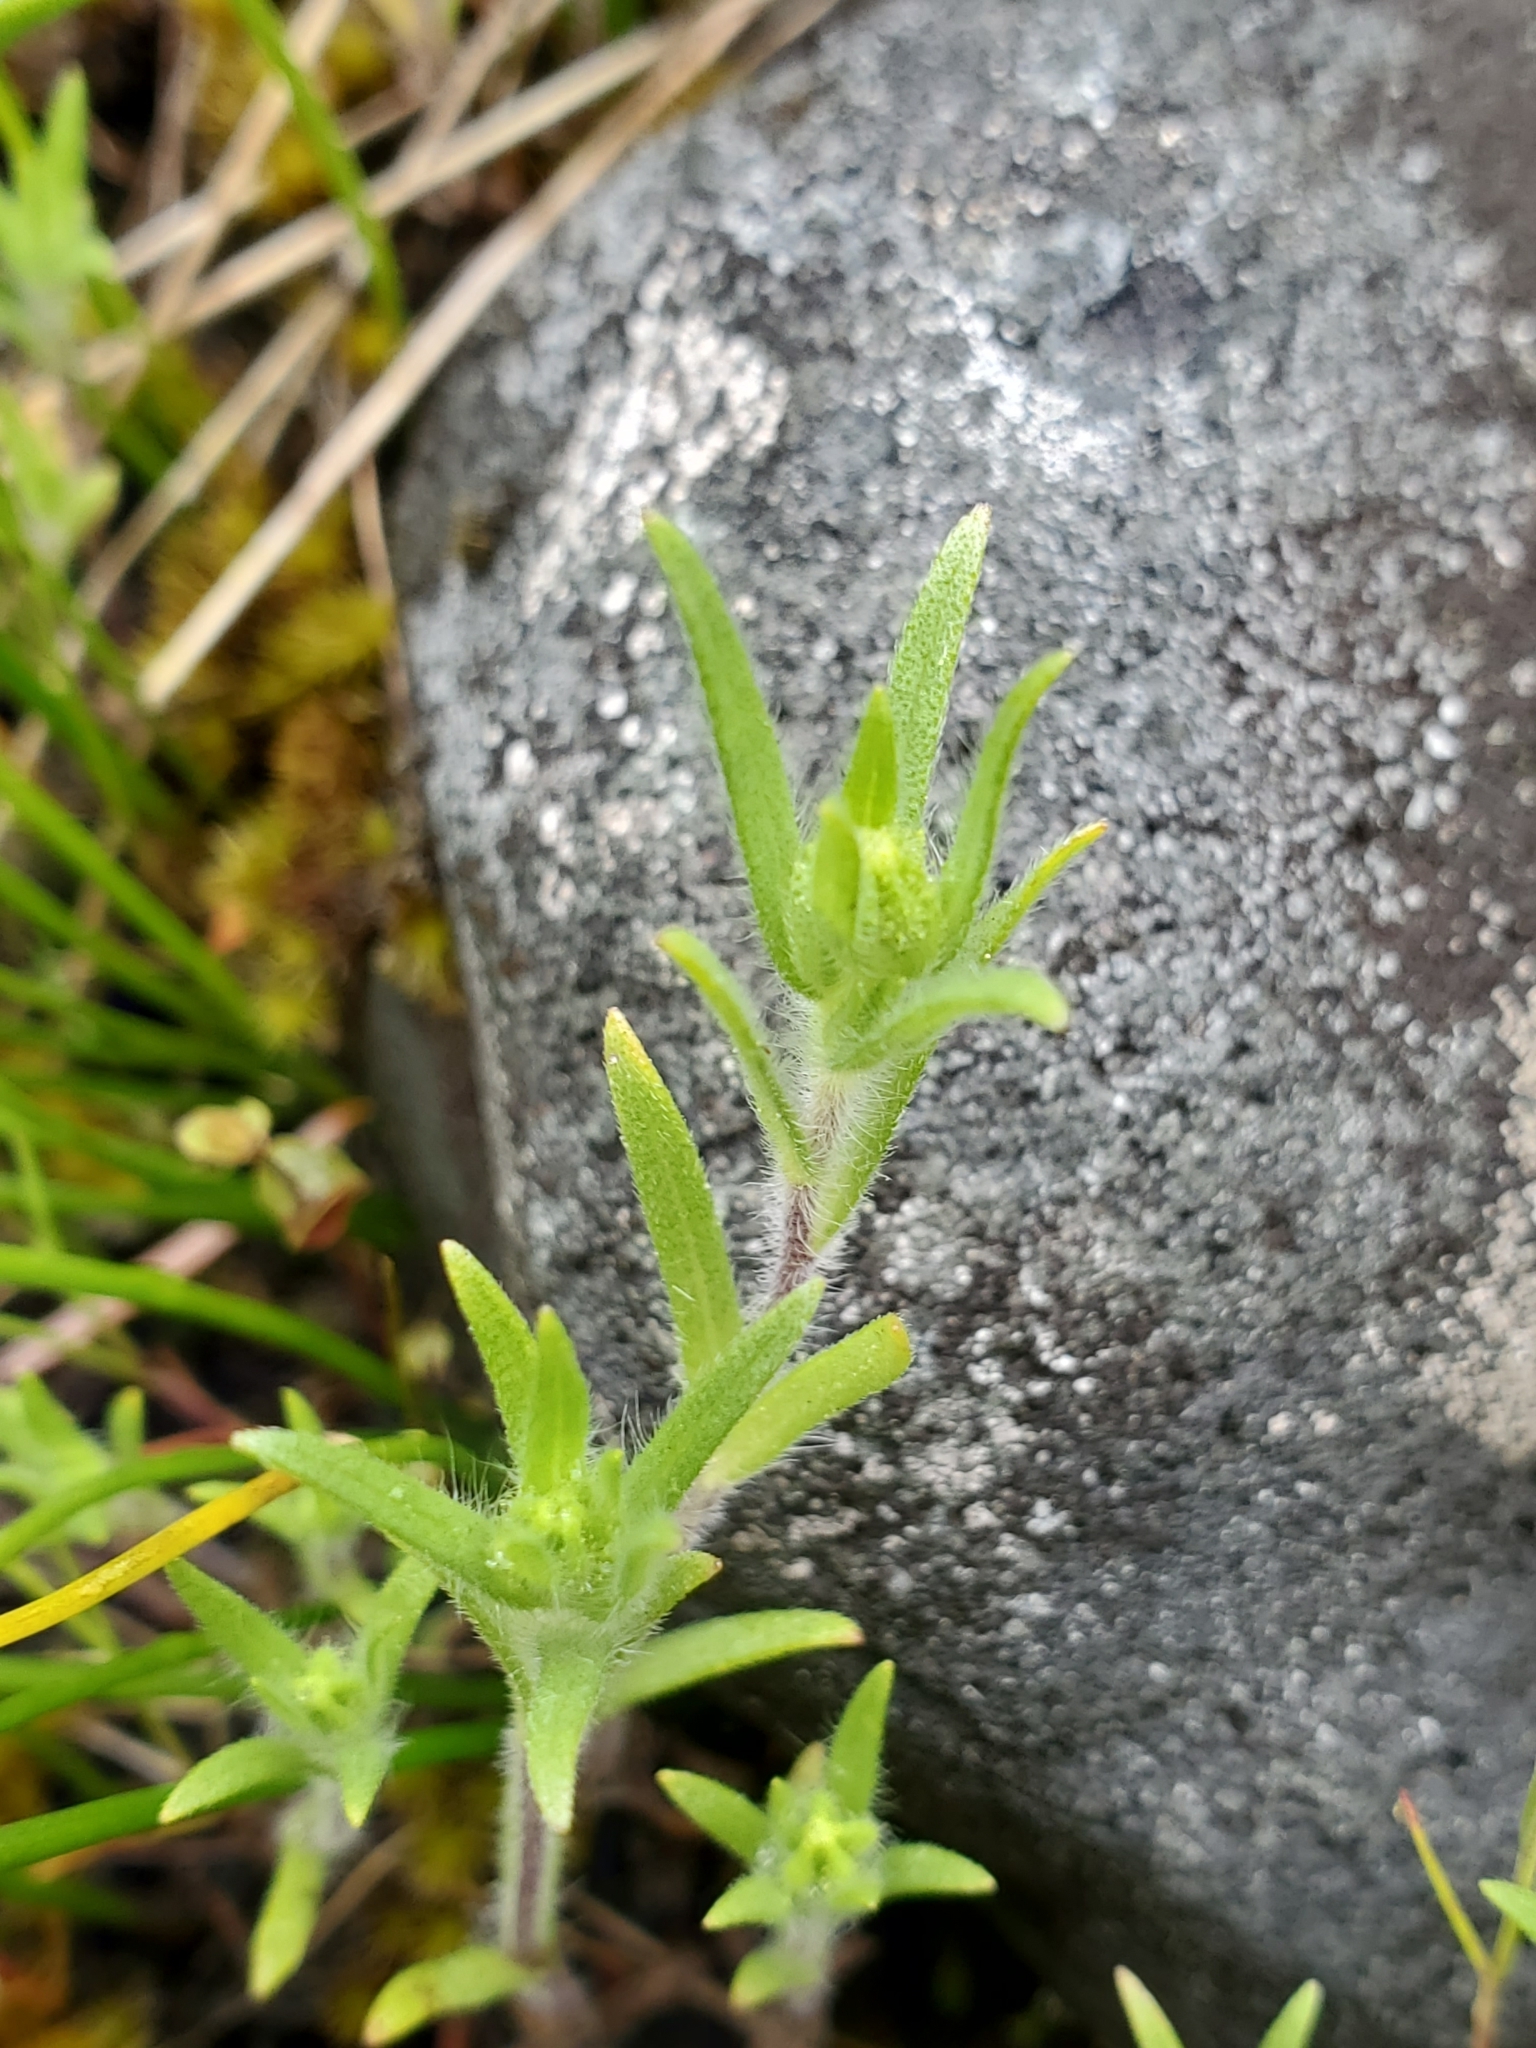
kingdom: Plantae
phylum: Tracheophyta
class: Magnoliopsida
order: Asterales
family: Asteraceae
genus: Madia
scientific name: Madia exigua
